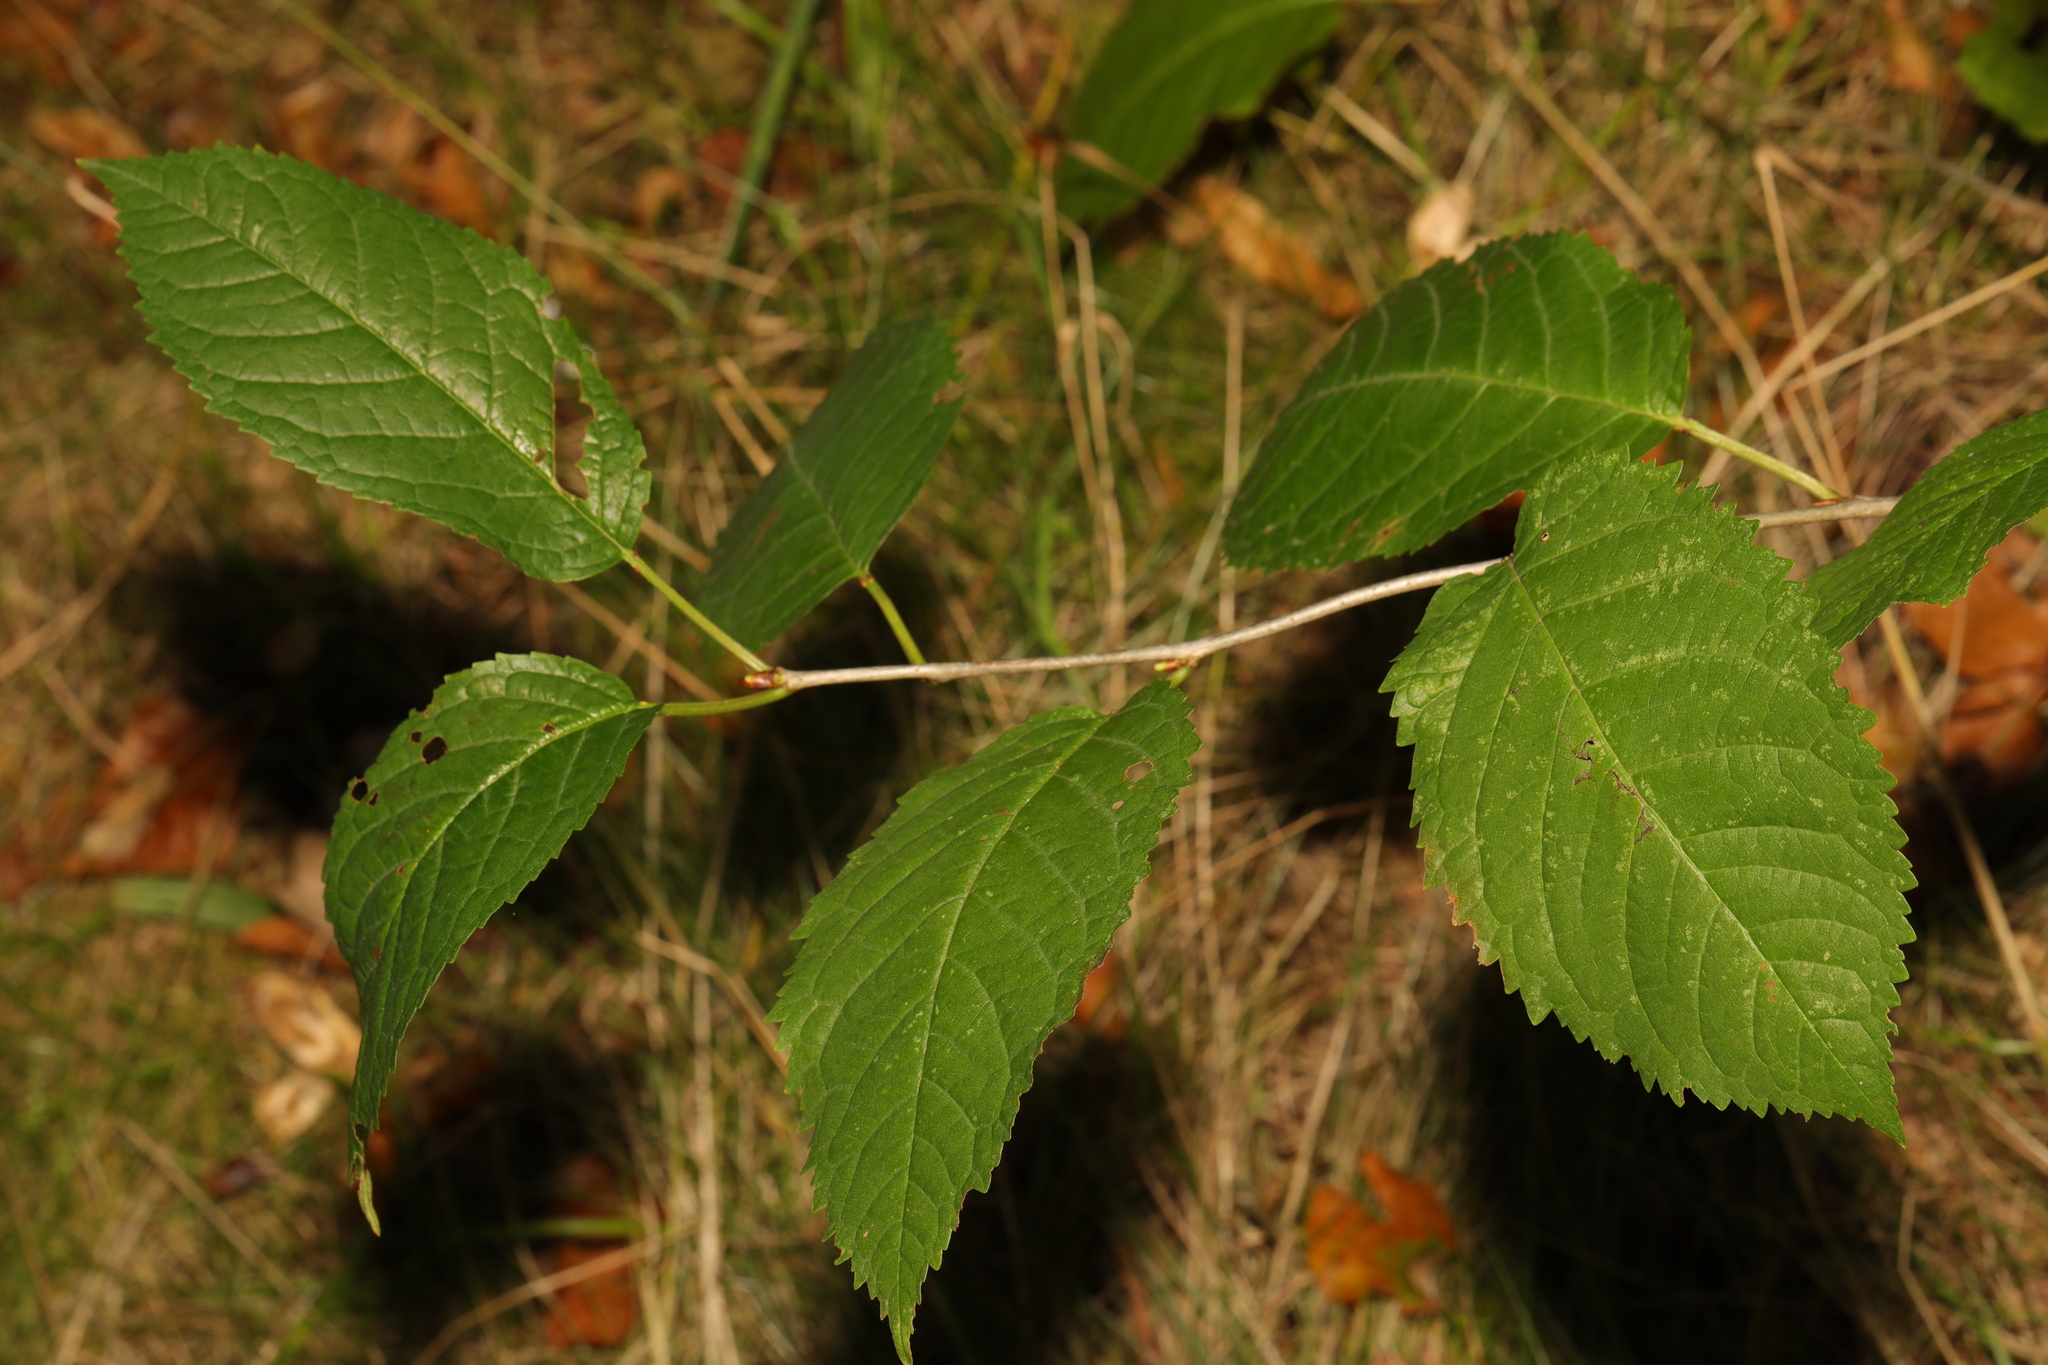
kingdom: Plantae
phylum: Tracheophyta
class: Magnoliopsida
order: Rosales
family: Rosaceae
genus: Prunus
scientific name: Prunus avium
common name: Sweet cherry
